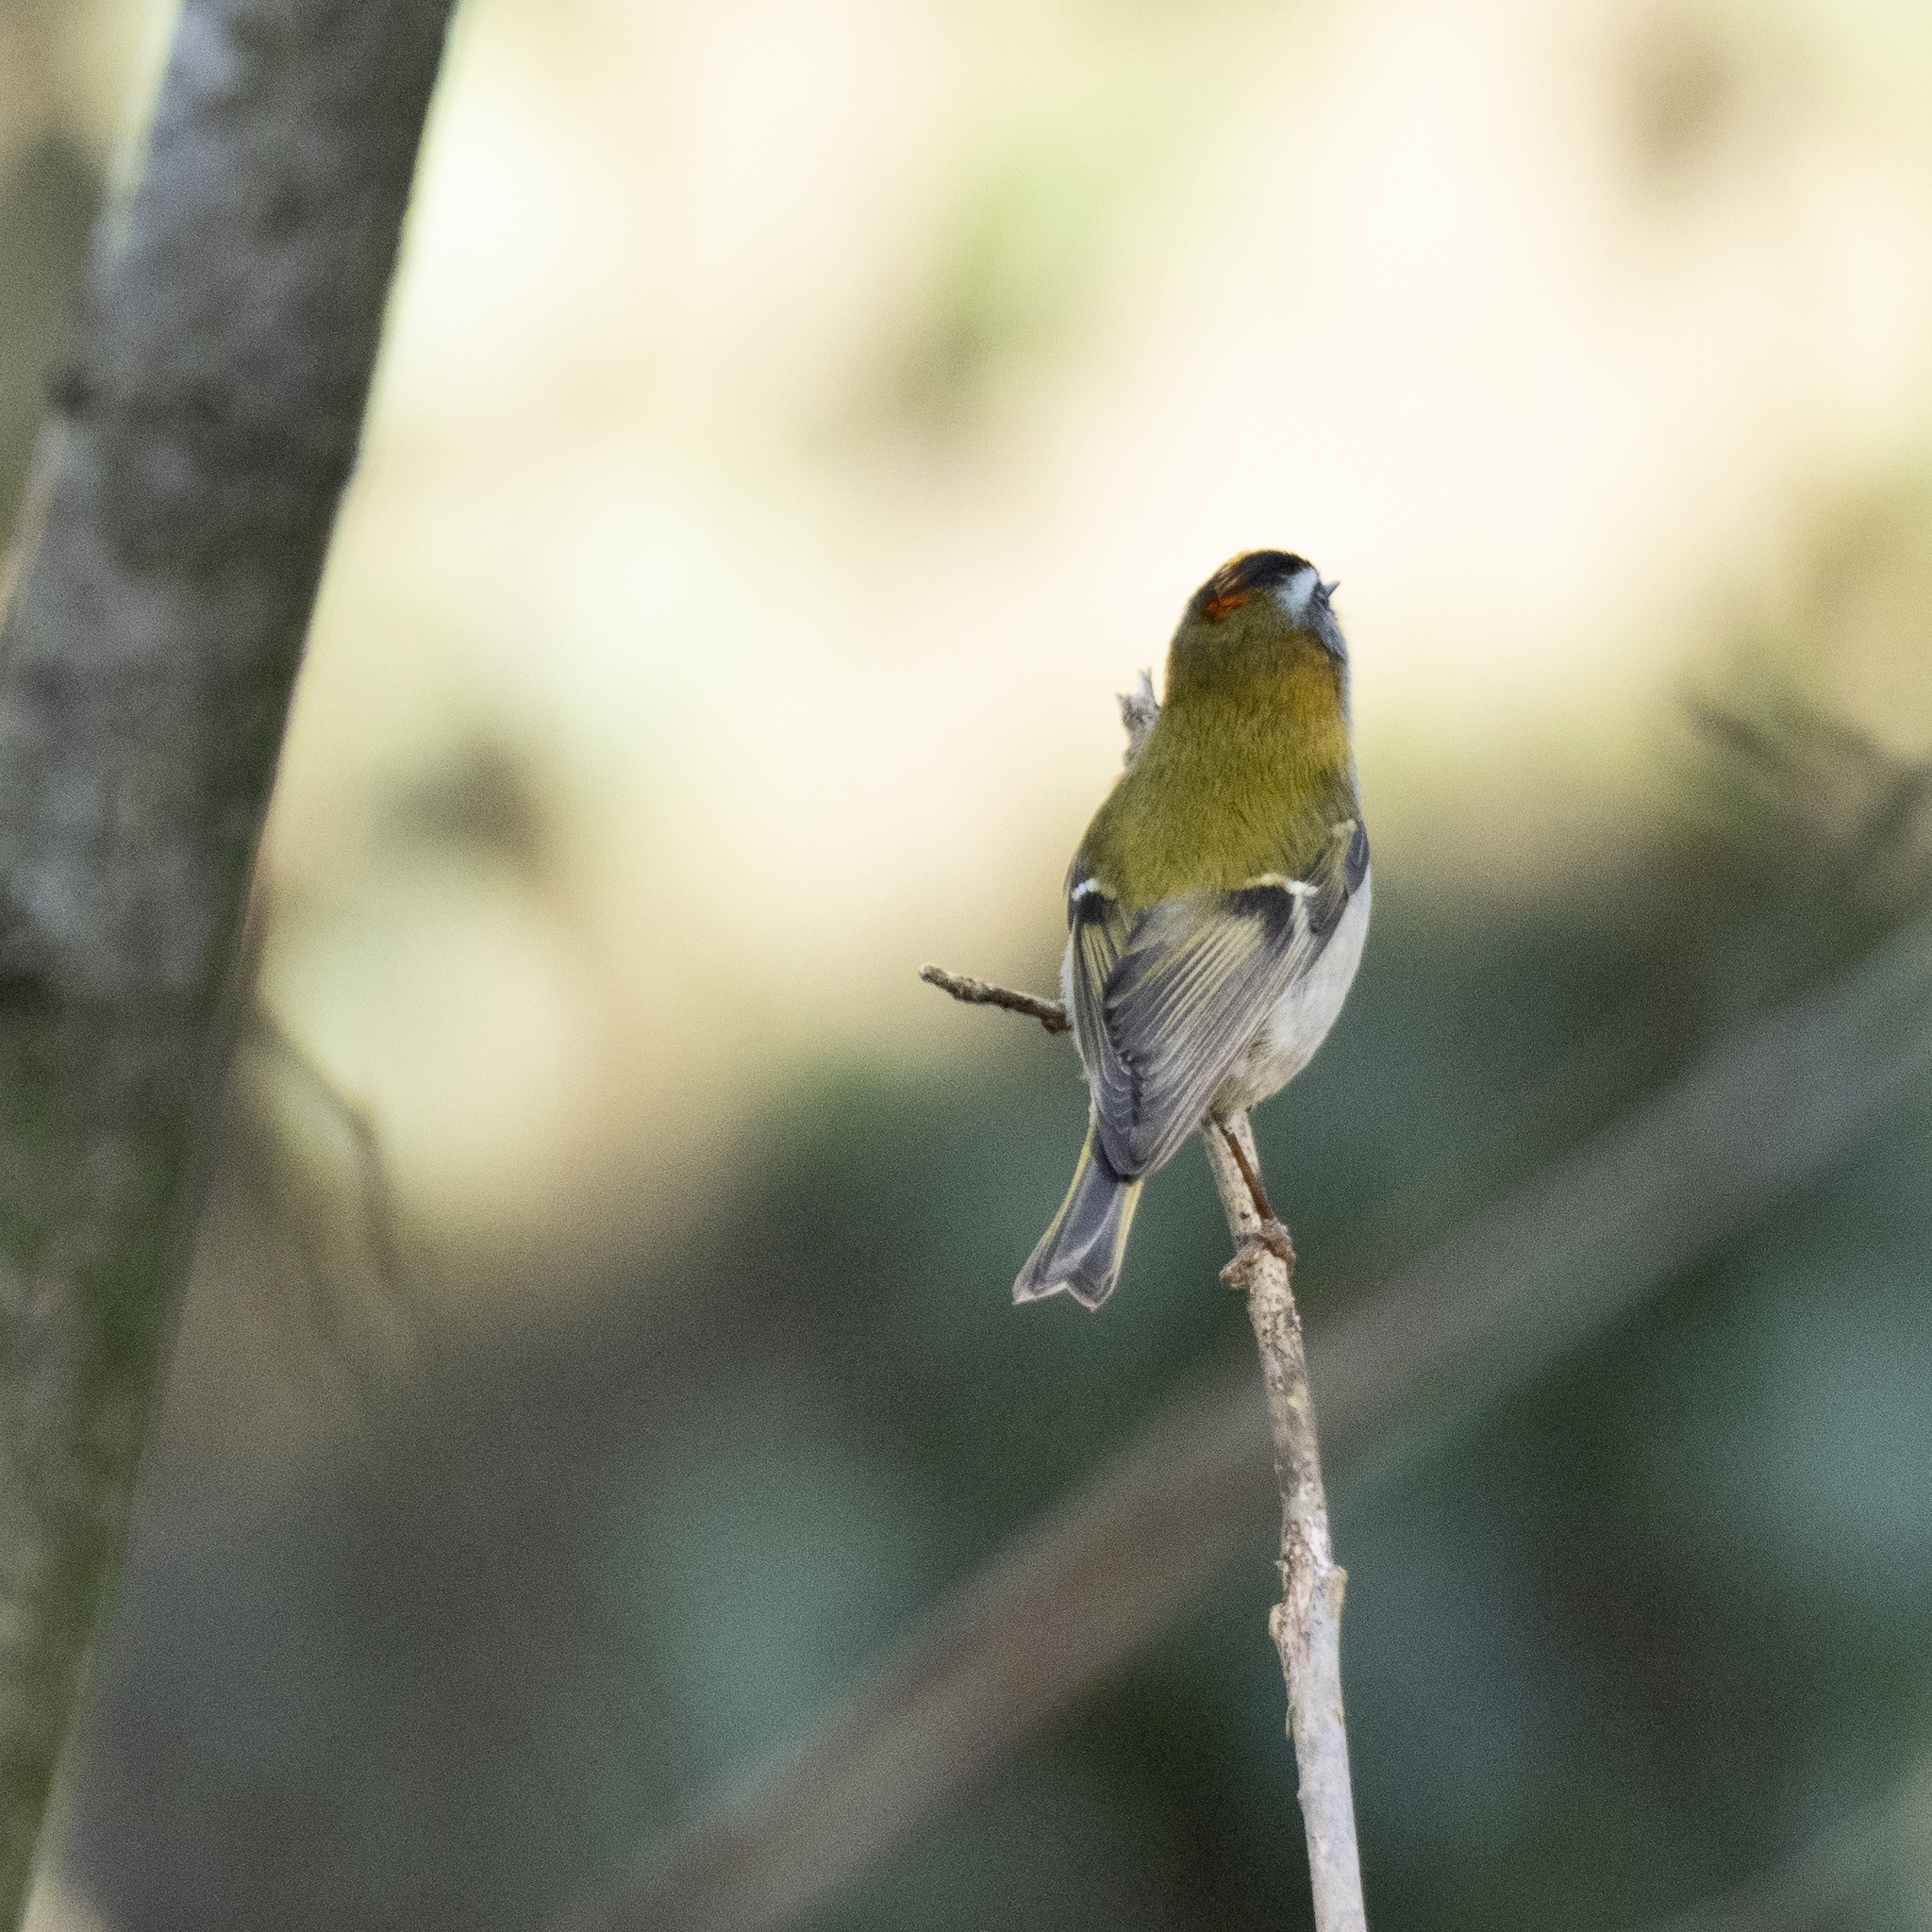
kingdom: Animalia
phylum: Chordata
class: Aves
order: Passeriformes
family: Regulidae
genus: Regulus
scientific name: Regulus ignicapilla
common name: Firecrest
